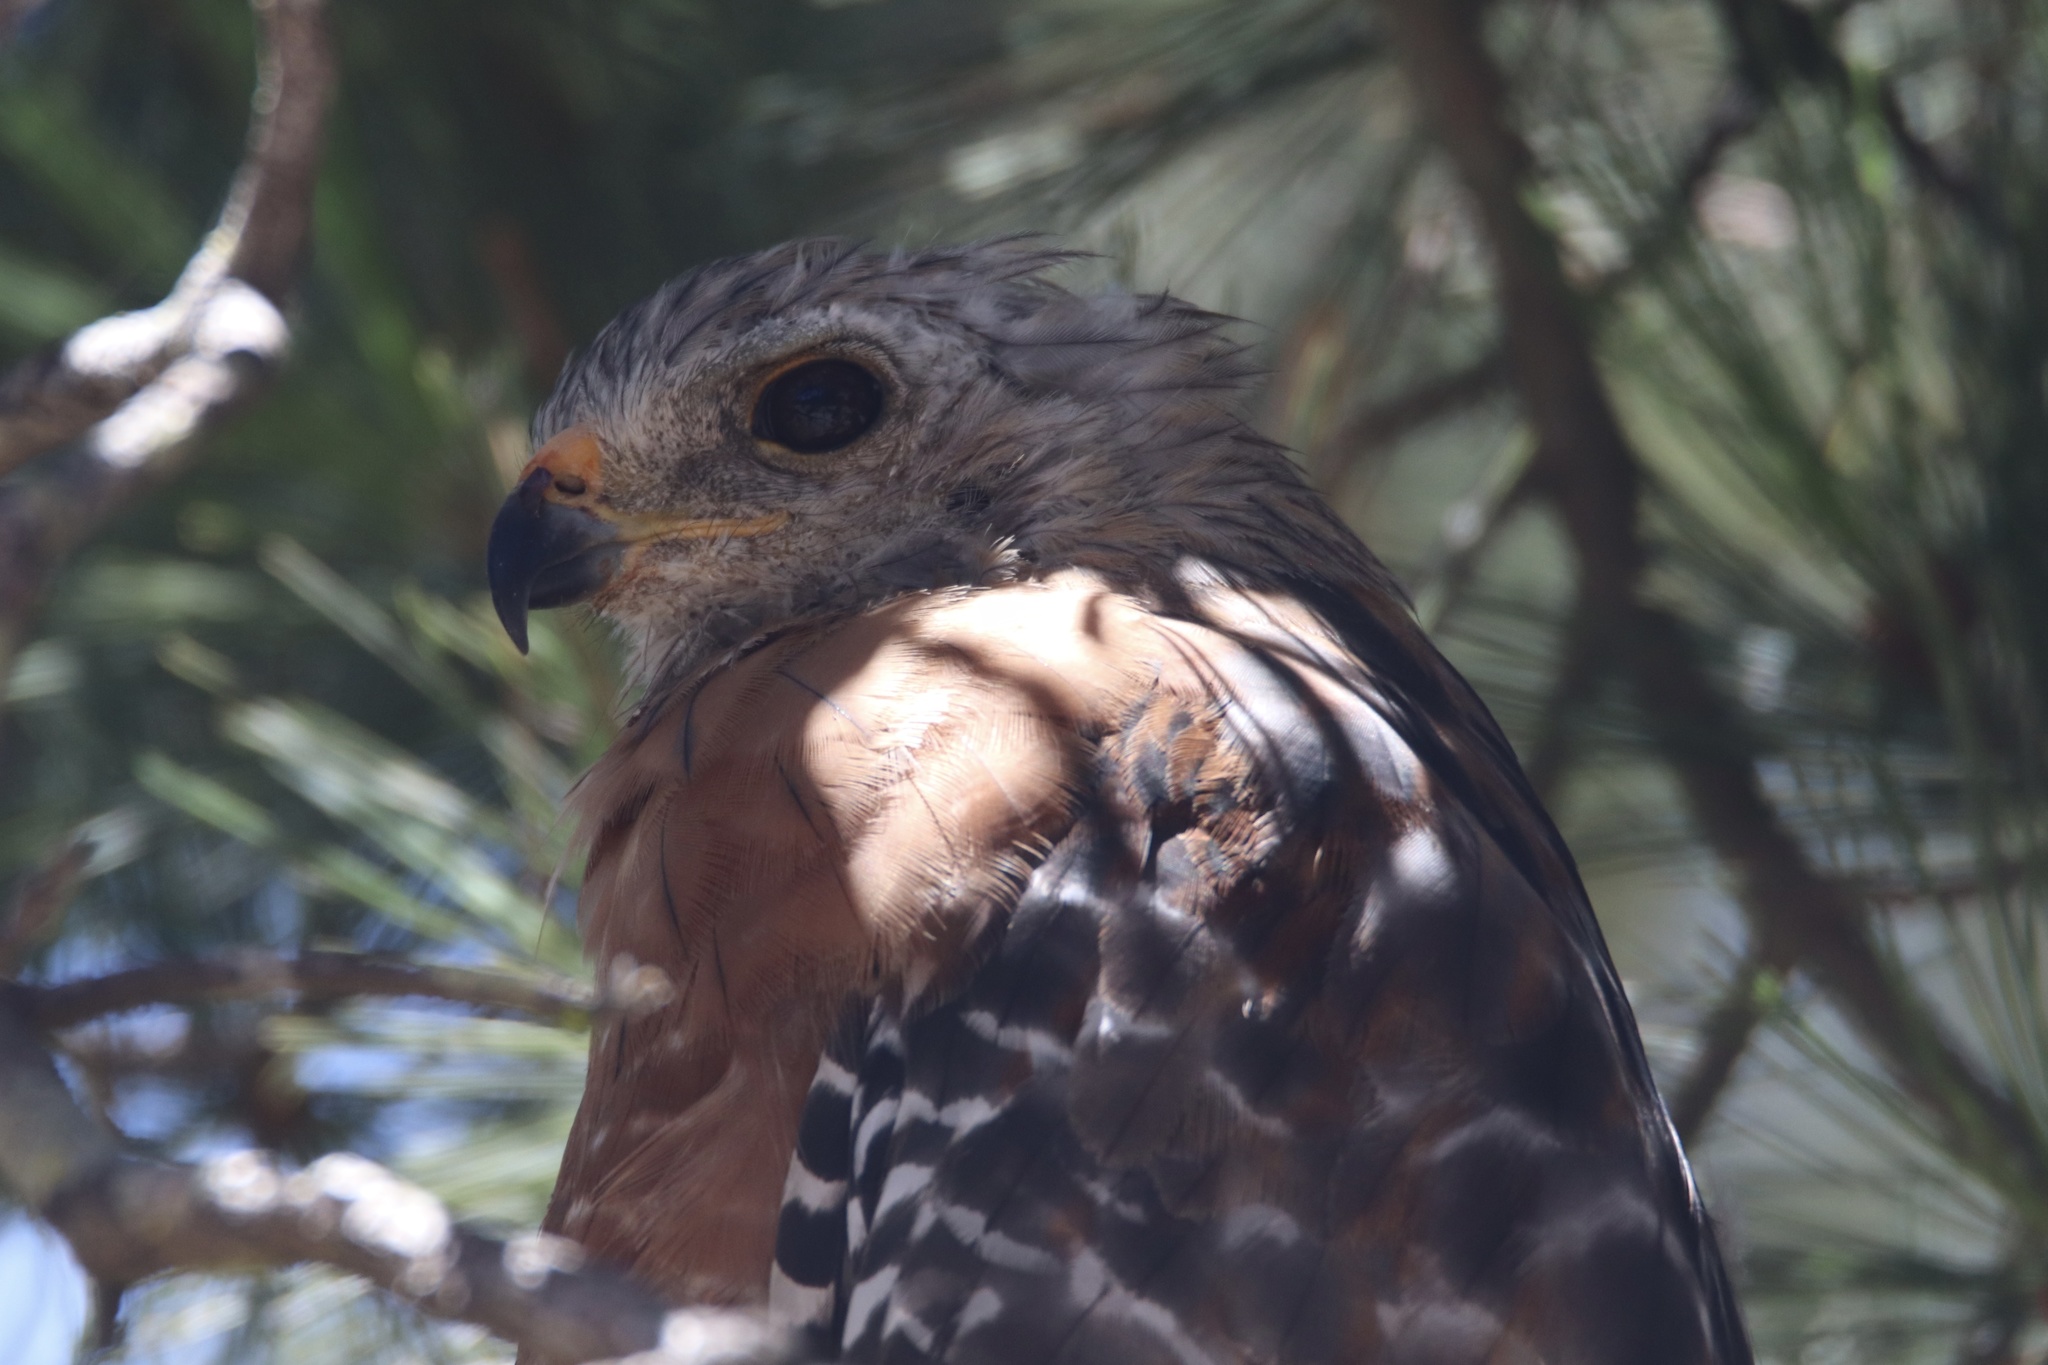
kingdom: Animalia
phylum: Chordata
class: Aves
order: Accipitriformes
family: Accipitridae
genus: Buteo
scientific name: Buteo lineatus
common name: Red-shouldered hawk
